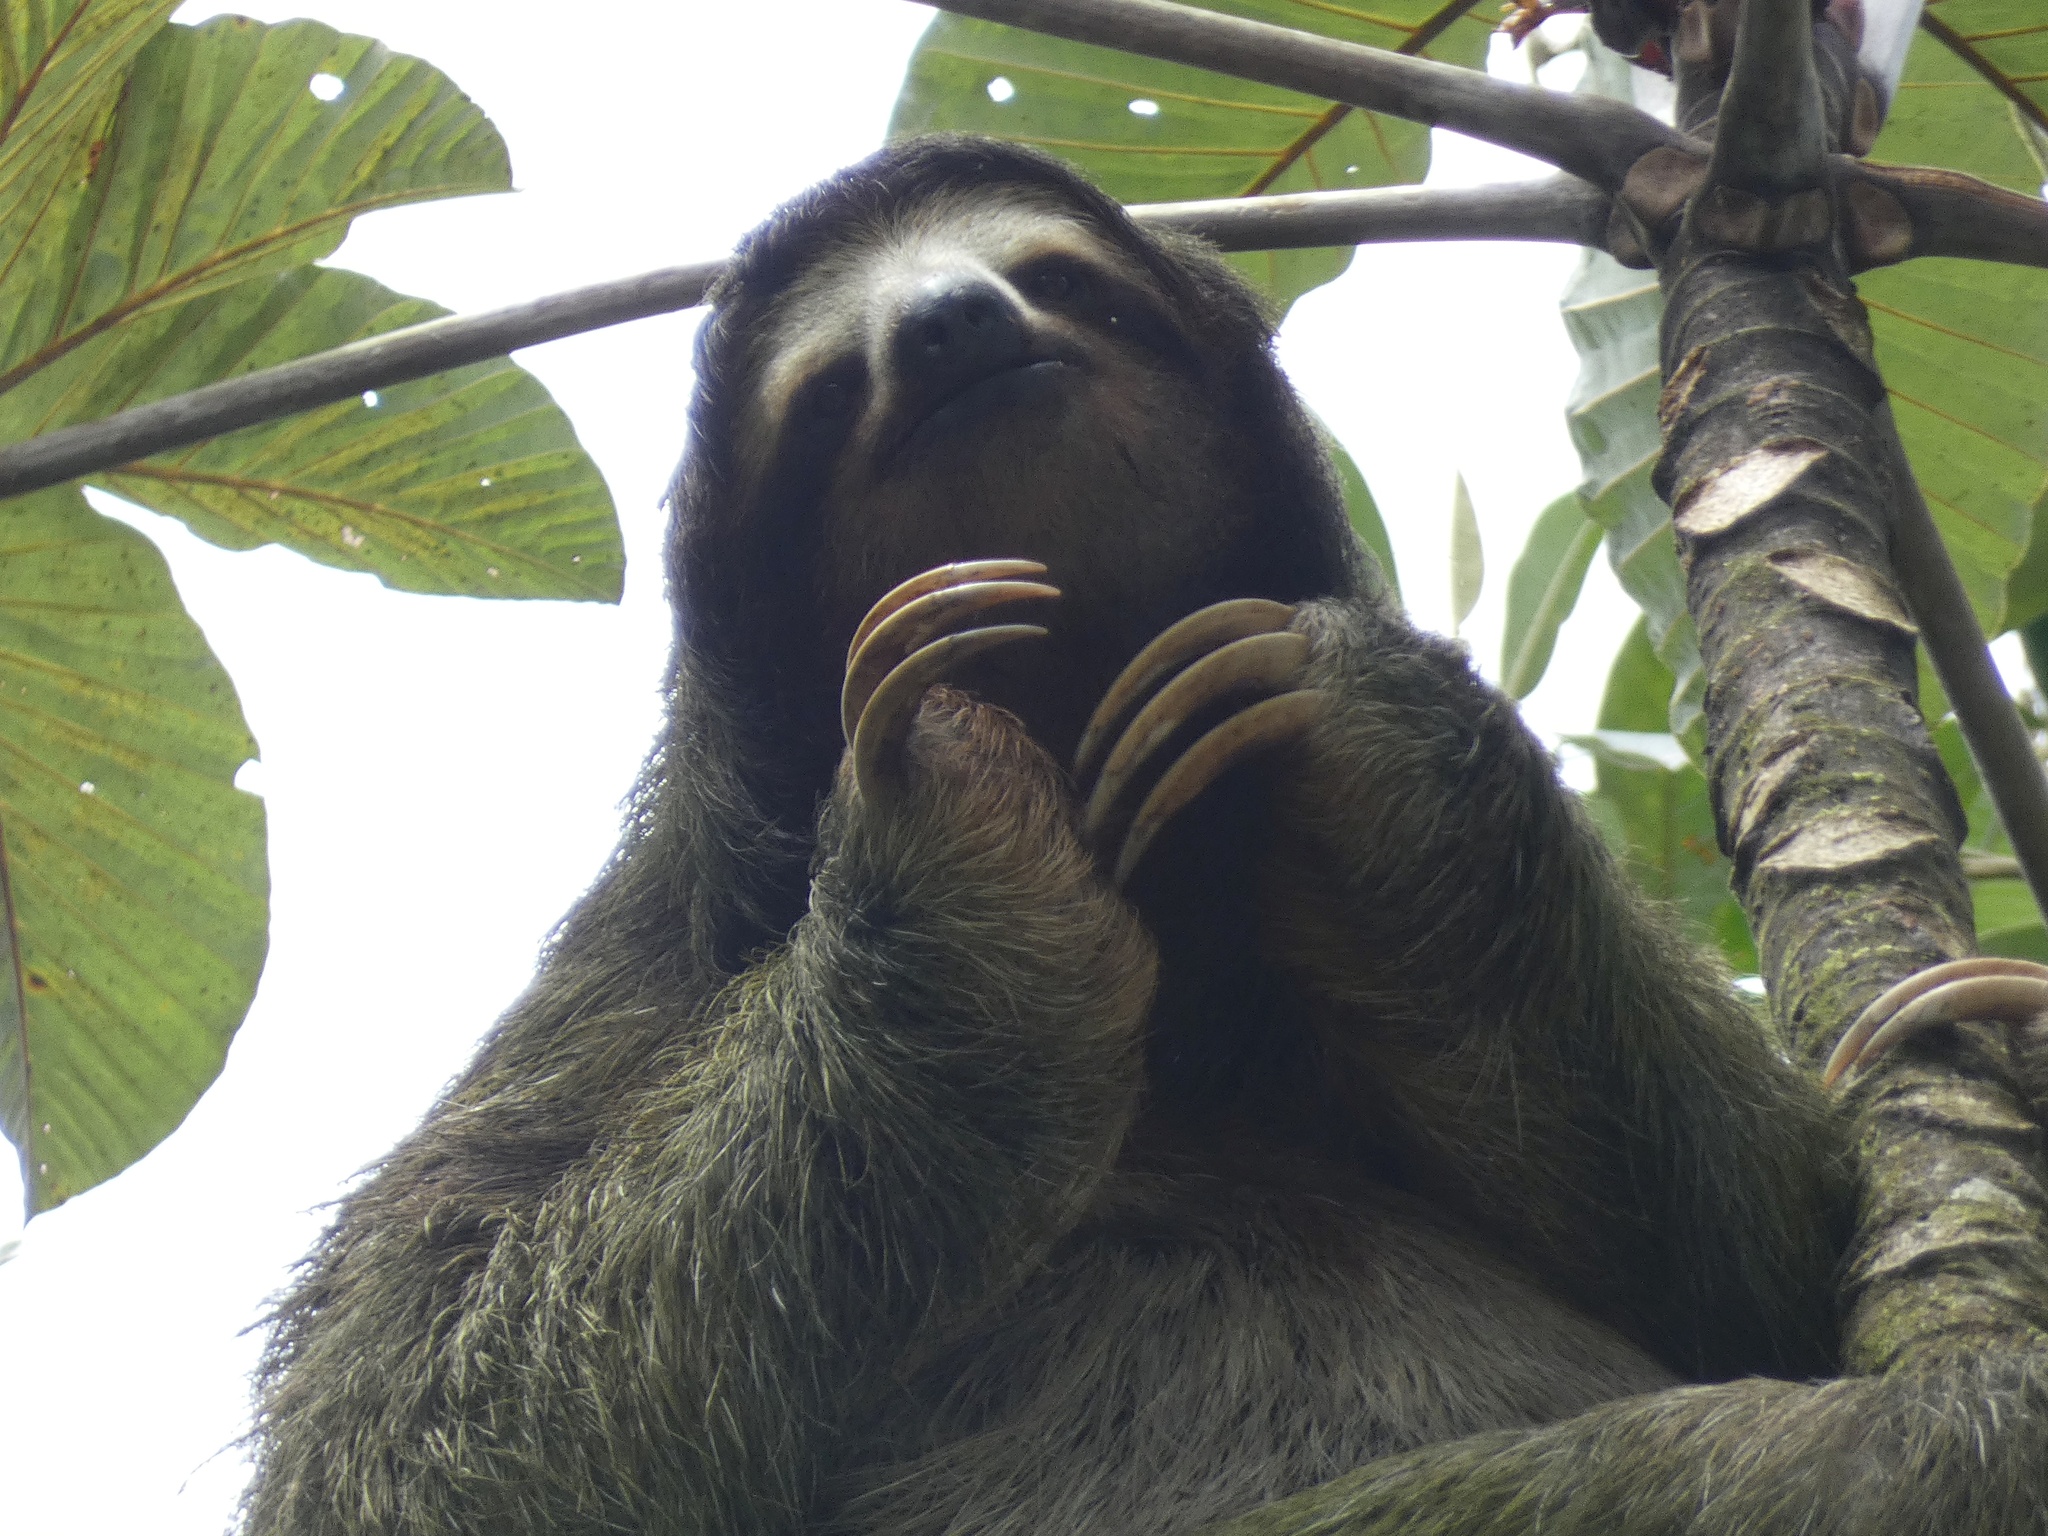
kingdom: Animalia
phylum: Chordata
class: Mammalia
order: Pilosa
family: Bradypodidae
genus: Bradypus
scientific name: Bradypus variegatus
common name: Brown-throated three-toed sloth
